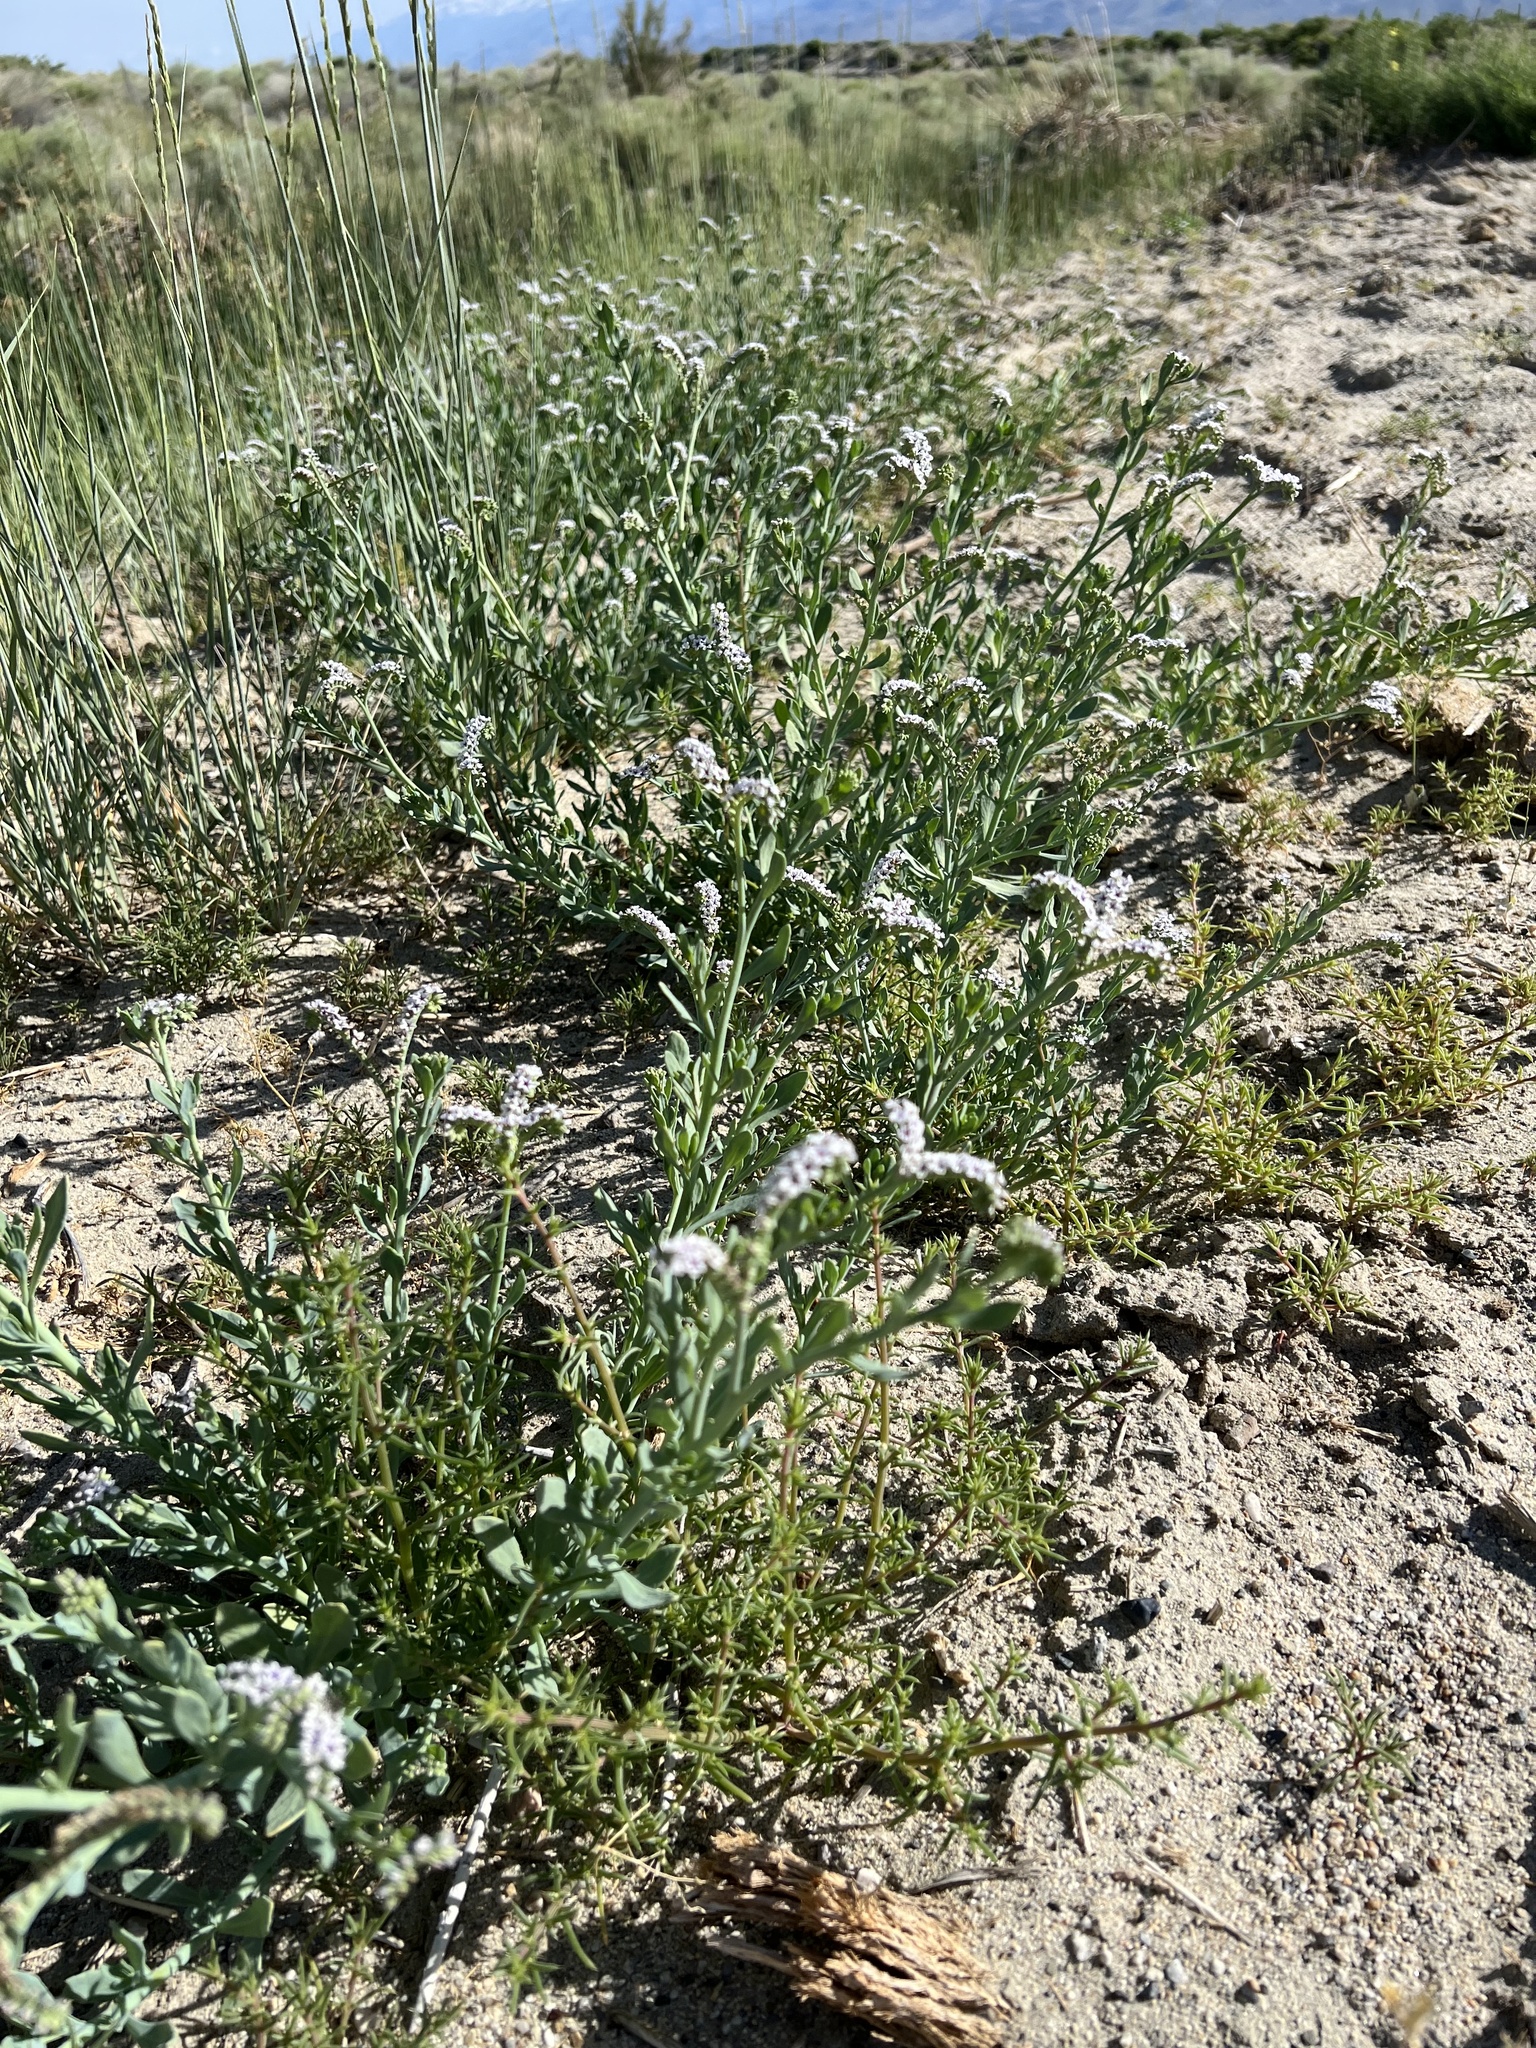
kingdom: Plantae
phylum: Tracheophyta
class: Magnoliopsida
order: Boraginales
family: Heliotropiaceae
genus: Heliotropium
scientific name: Heliotropium curassavicum
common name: Seaside heliotrope
